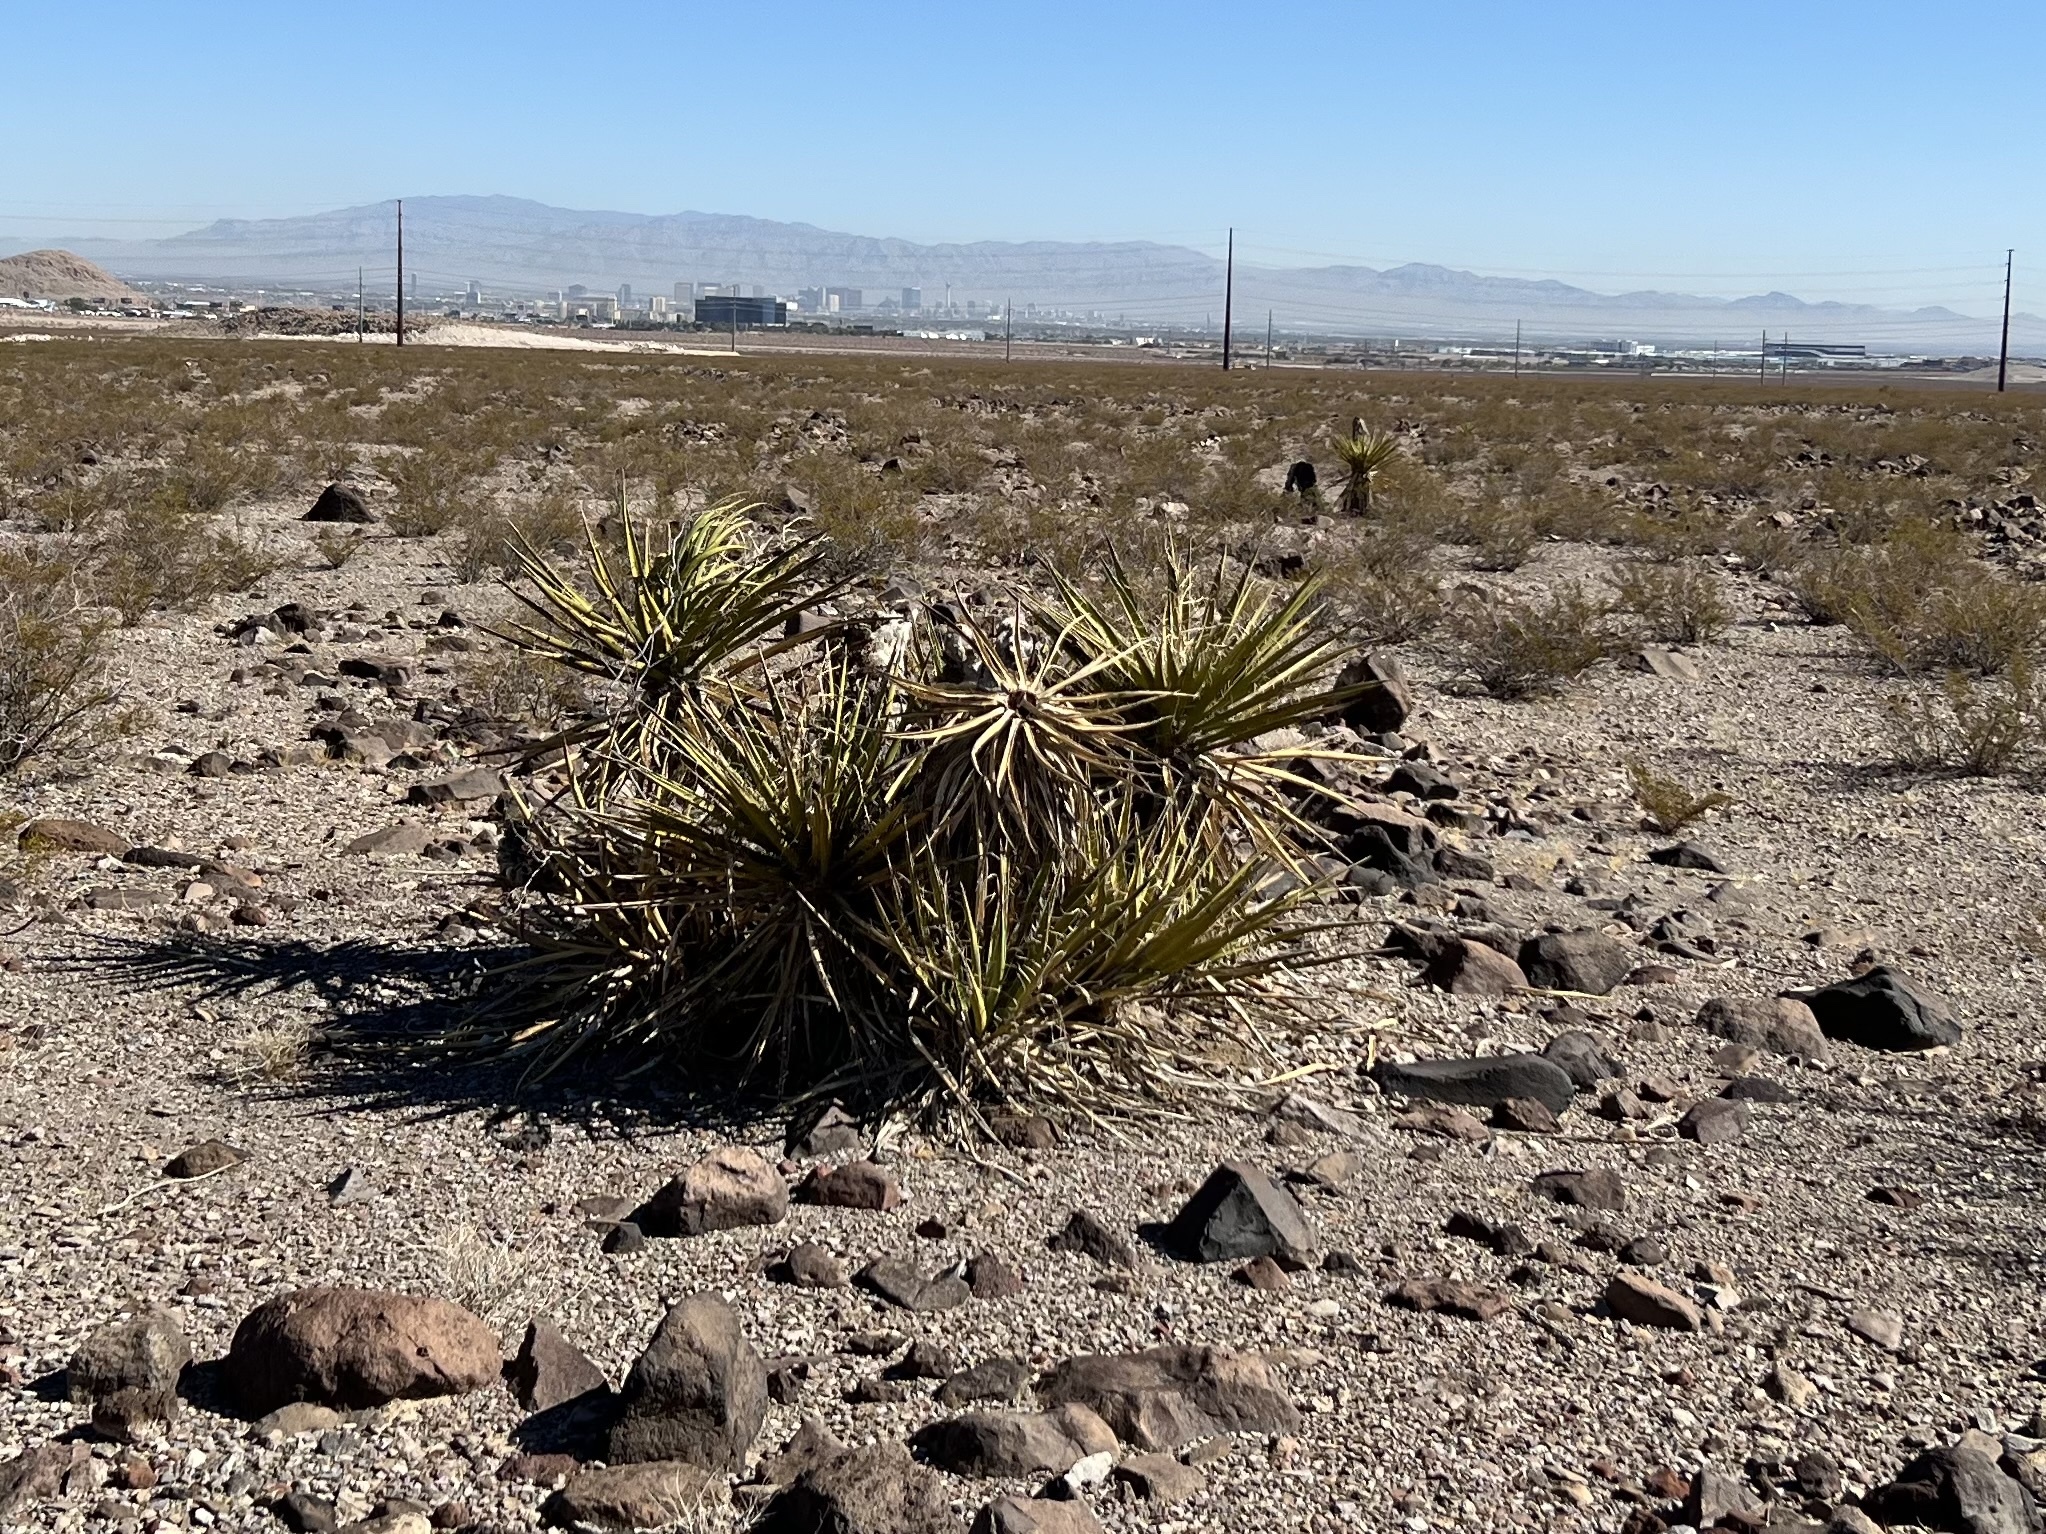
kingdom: Plantae
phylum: Tracheophyta
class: Liliopsida
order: Asparagales
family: Asparagaceae
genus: Yucca
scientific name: Yucca schidigera
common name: Mojave yucca
